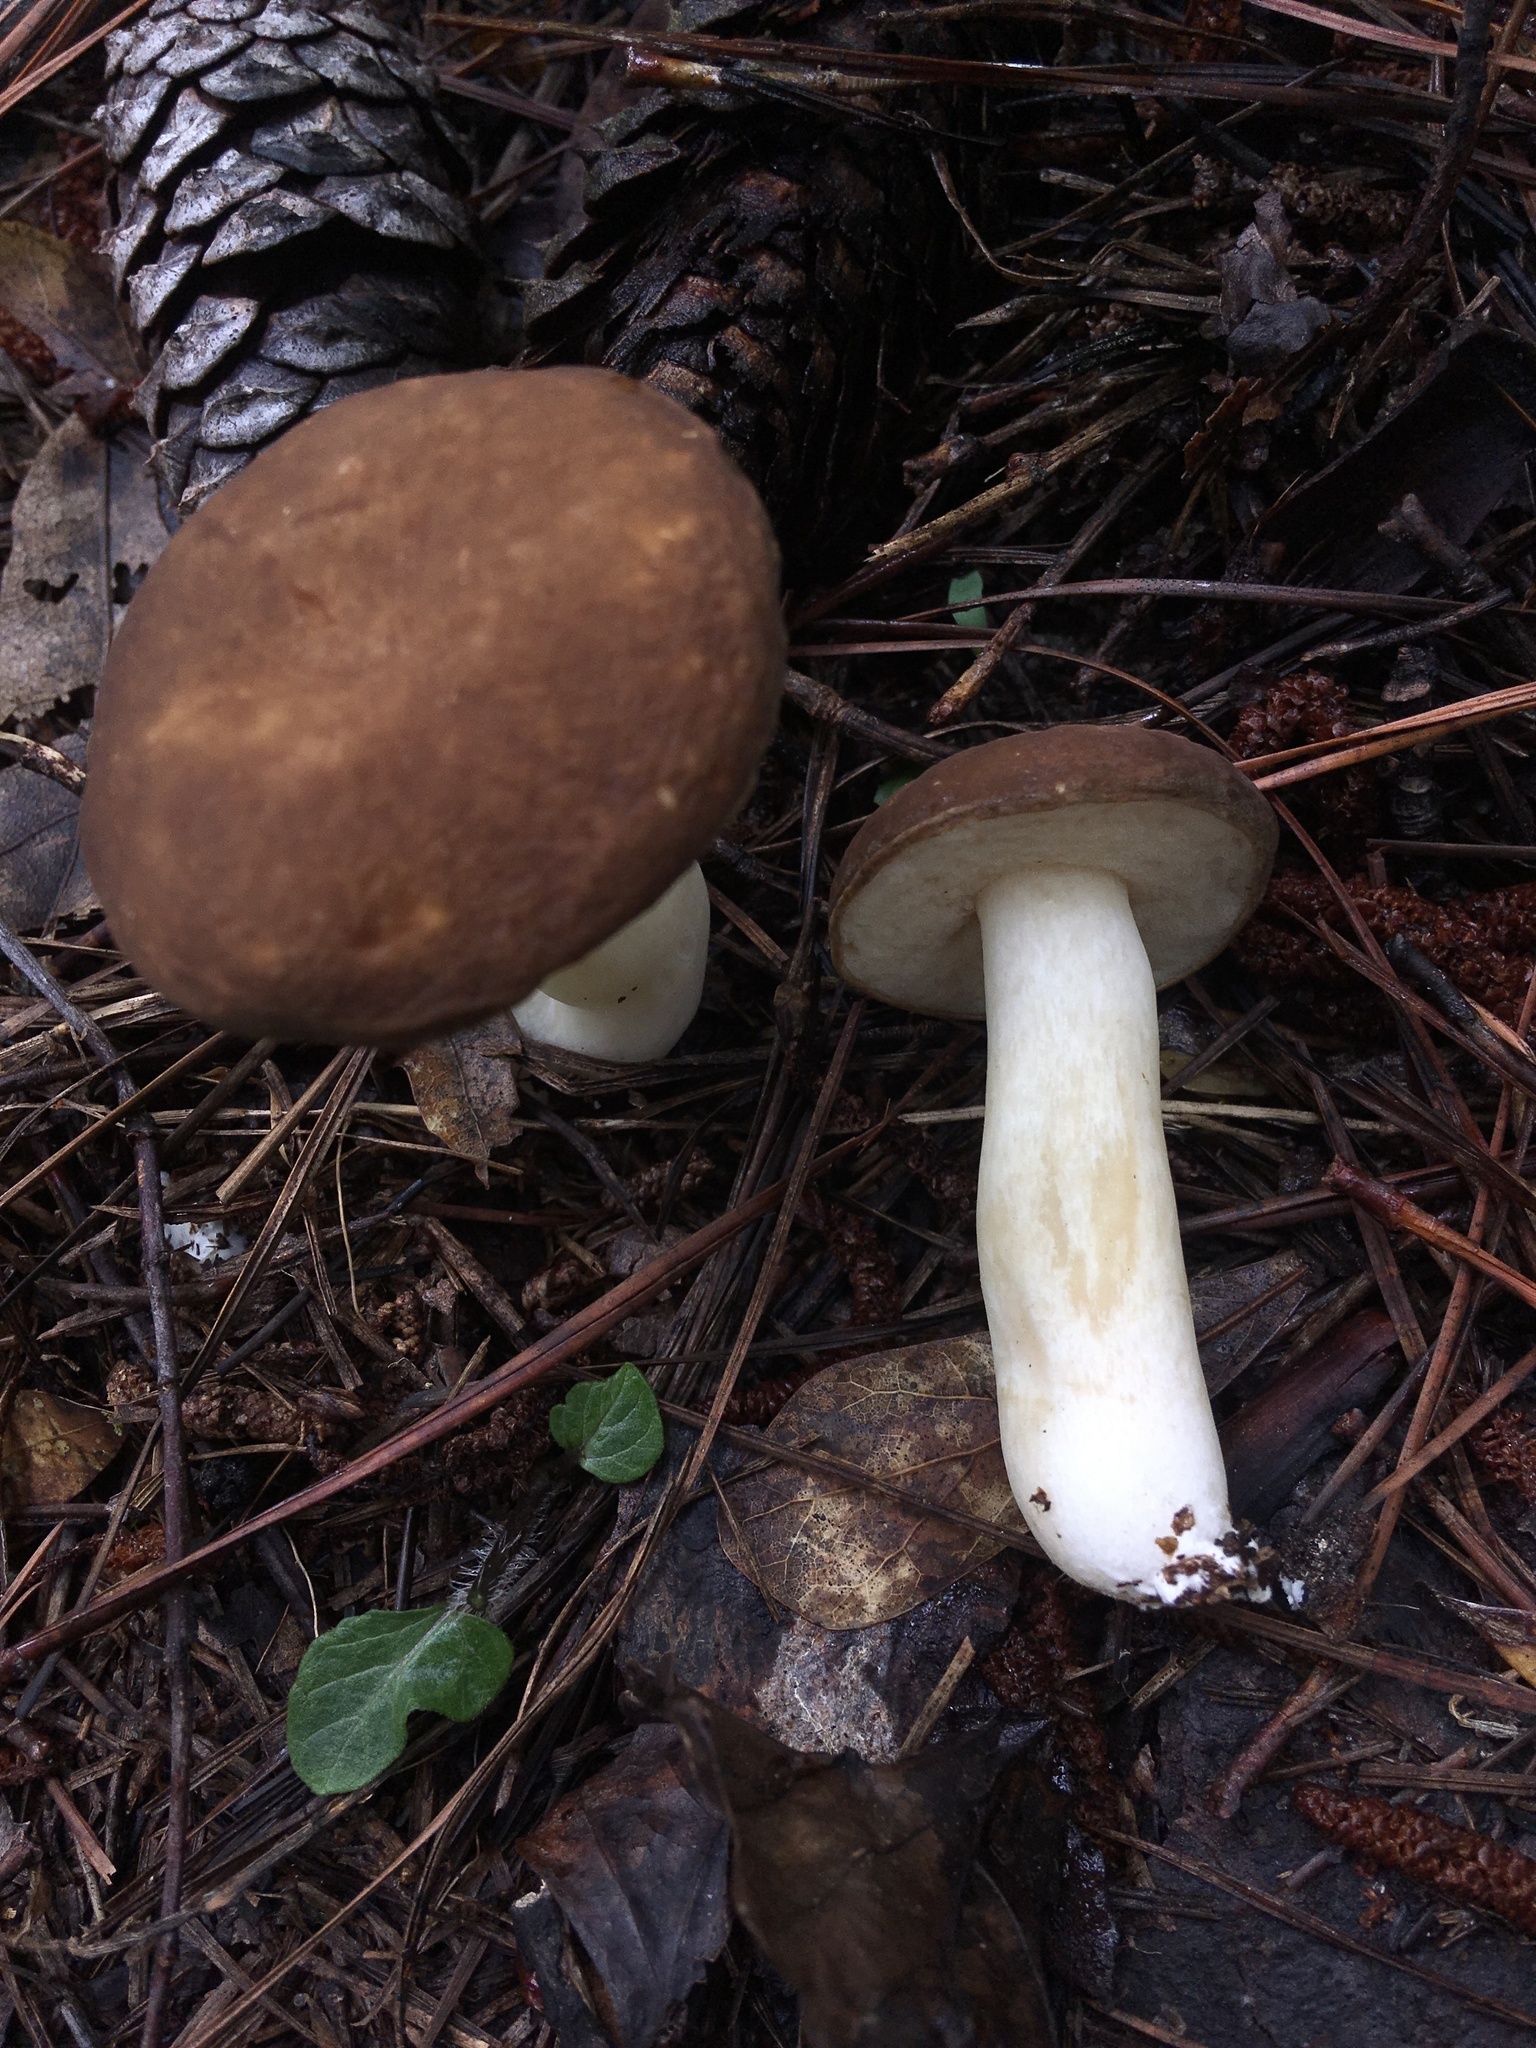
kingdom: Fungi
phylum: Basidiomycota
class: Agaricomycetes
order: Boletales
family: Boletaceae
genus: Xanthoconium
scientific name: Xanthoconium affine
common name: Spotted bolete
